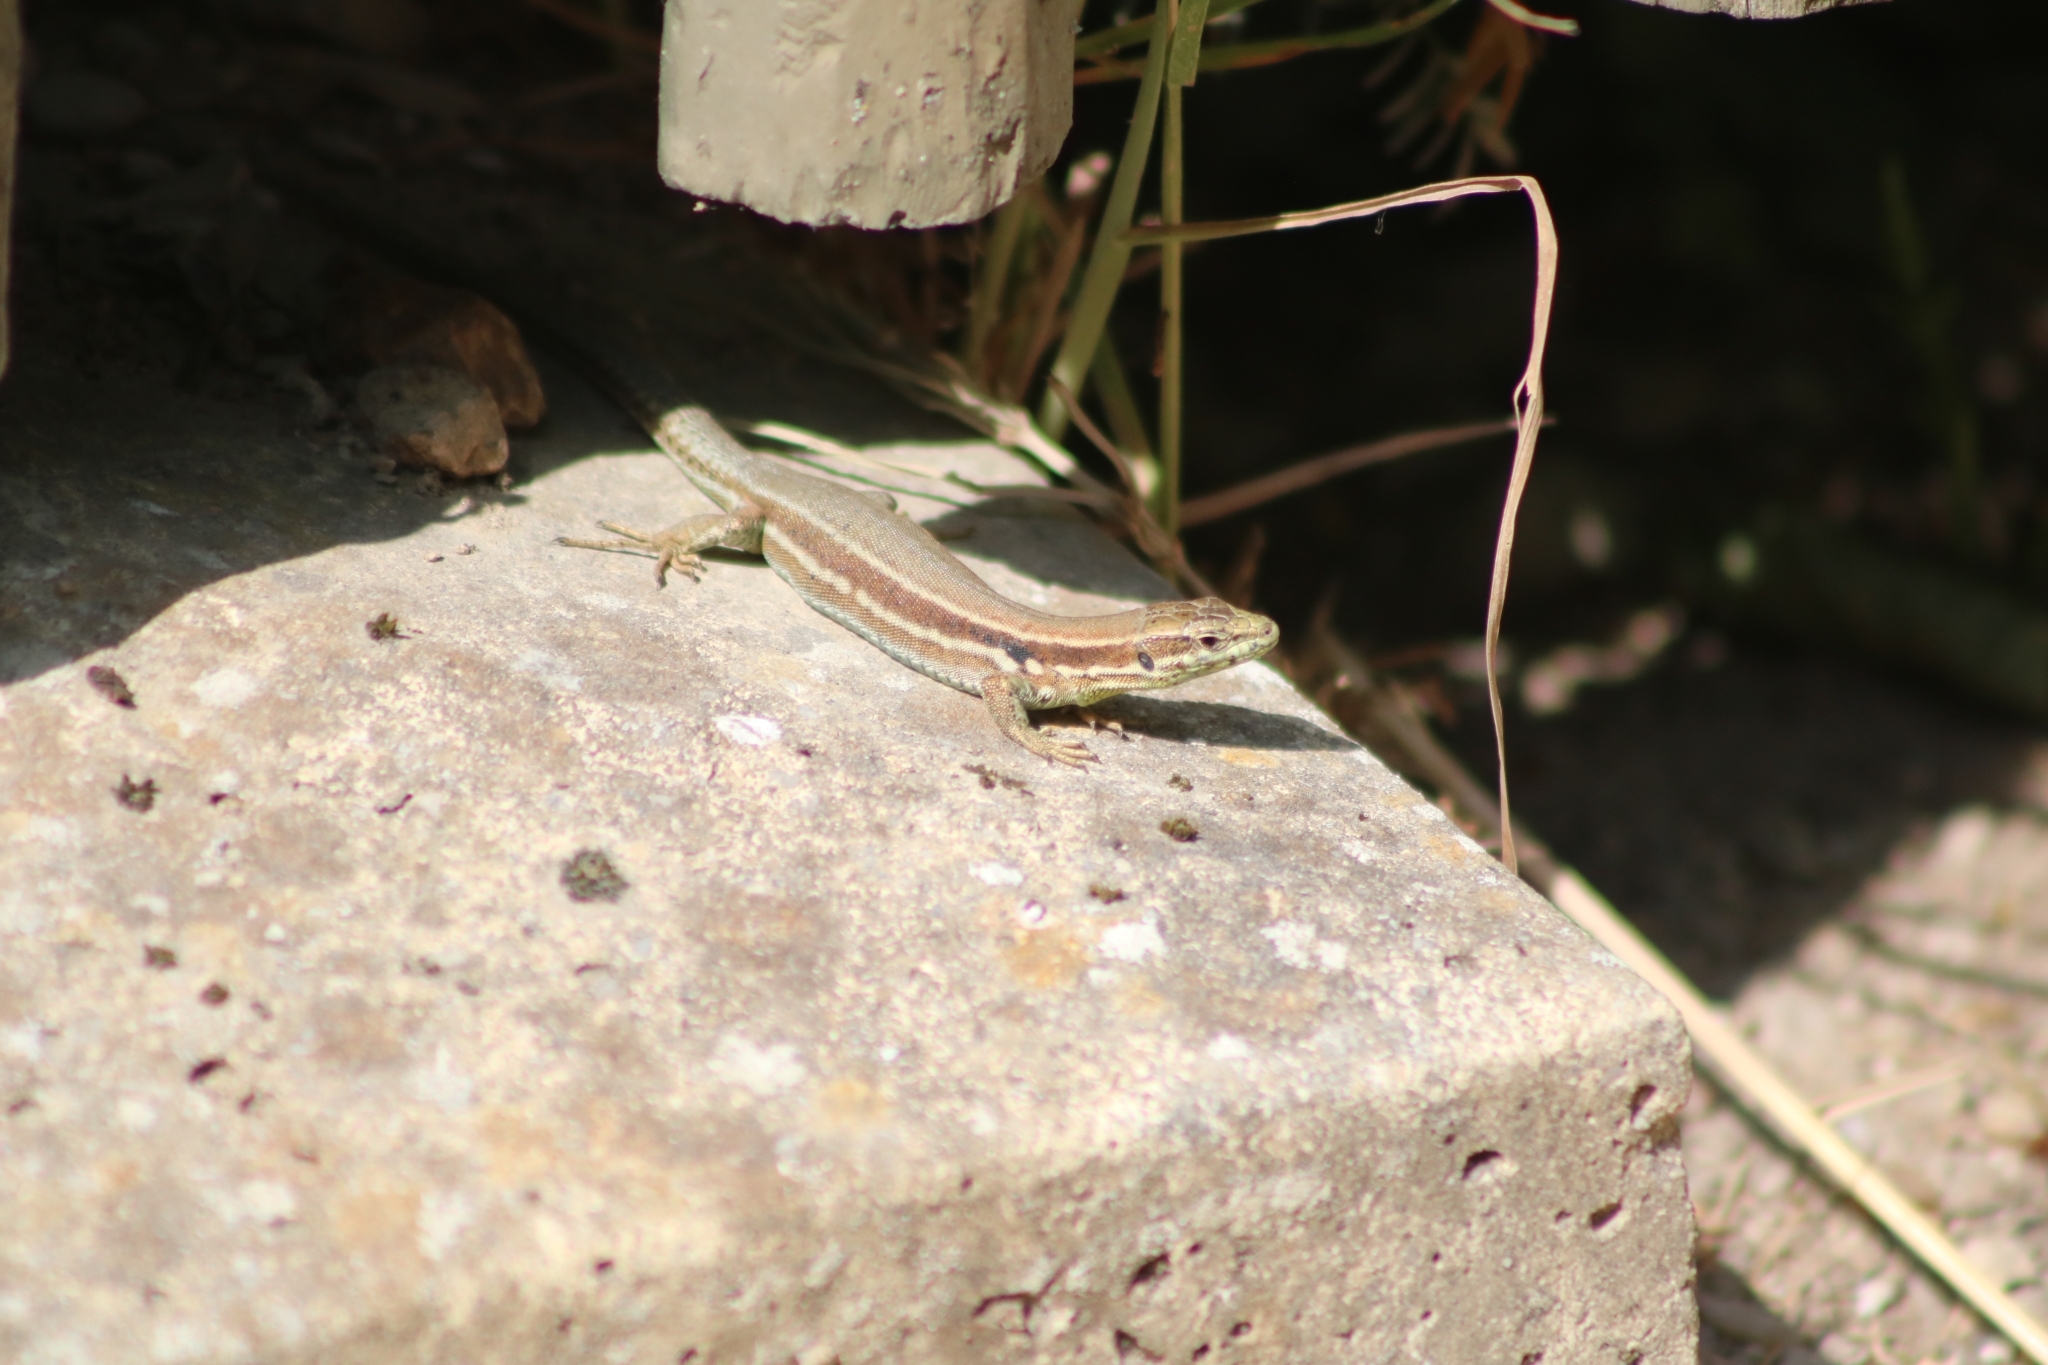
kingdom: Animalia
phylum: Chordata
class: Squamata
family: Lacertidae
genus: Podarcis
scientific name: Podarcis muralis
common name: Common wall lizard
